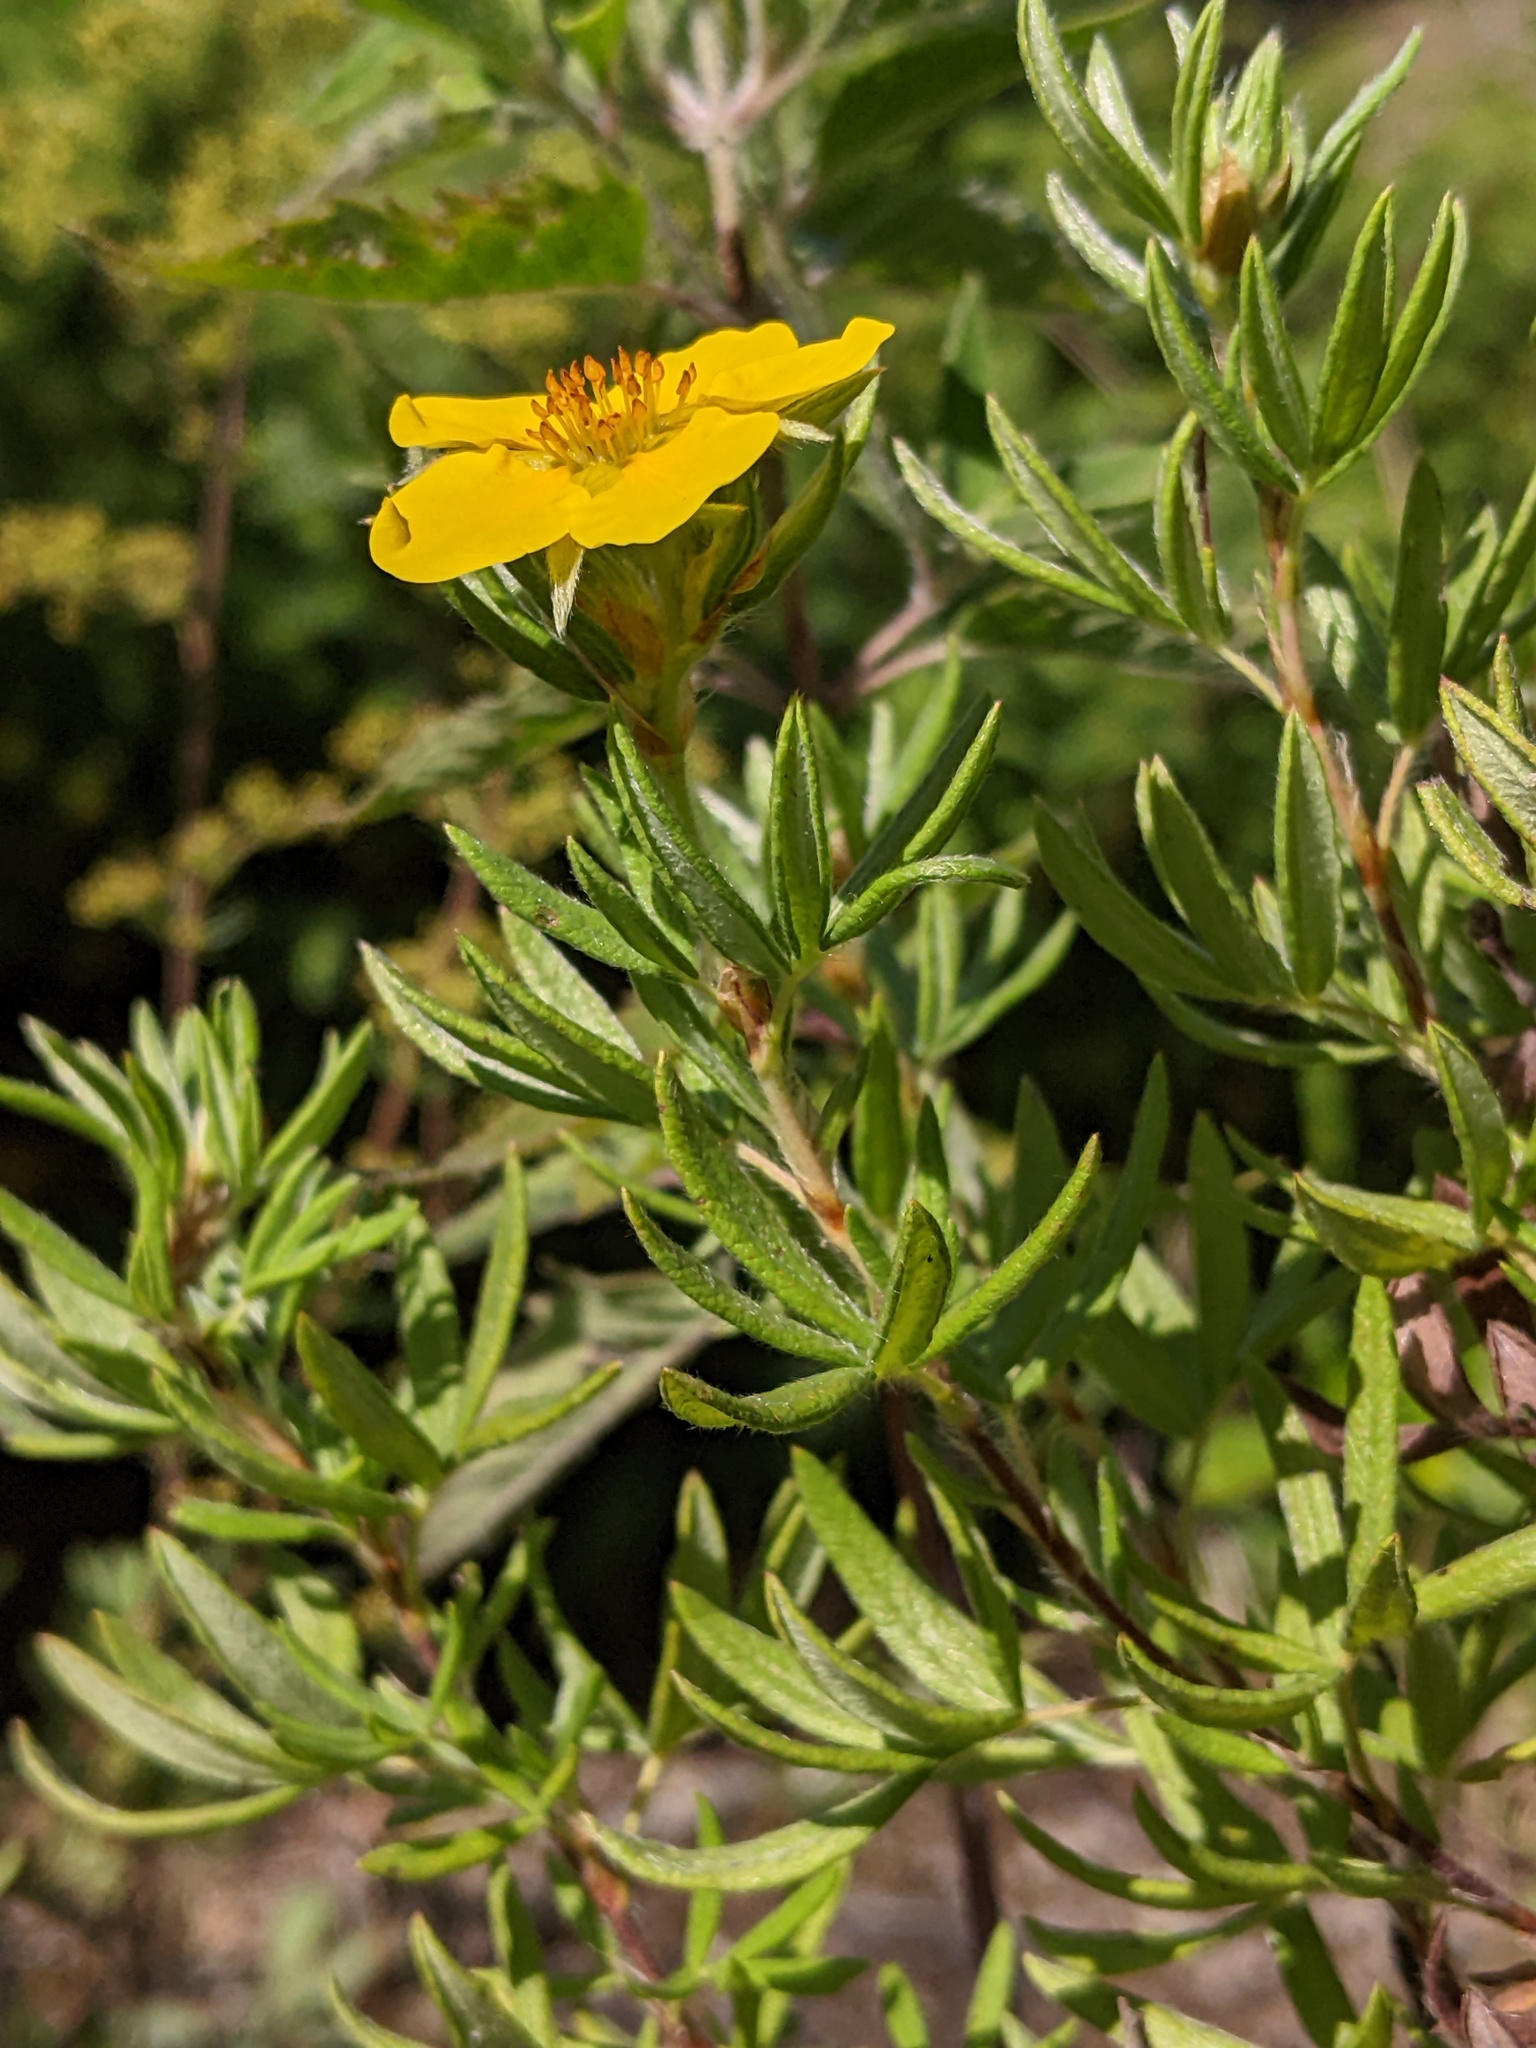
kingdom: Plantae
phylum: Tracheophyta
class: Magnoliopsida
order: Rosales
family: Rosaceae
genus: Dasiphora
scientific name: Dasiphora fruticosa
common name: Shrubby cinquefoil
